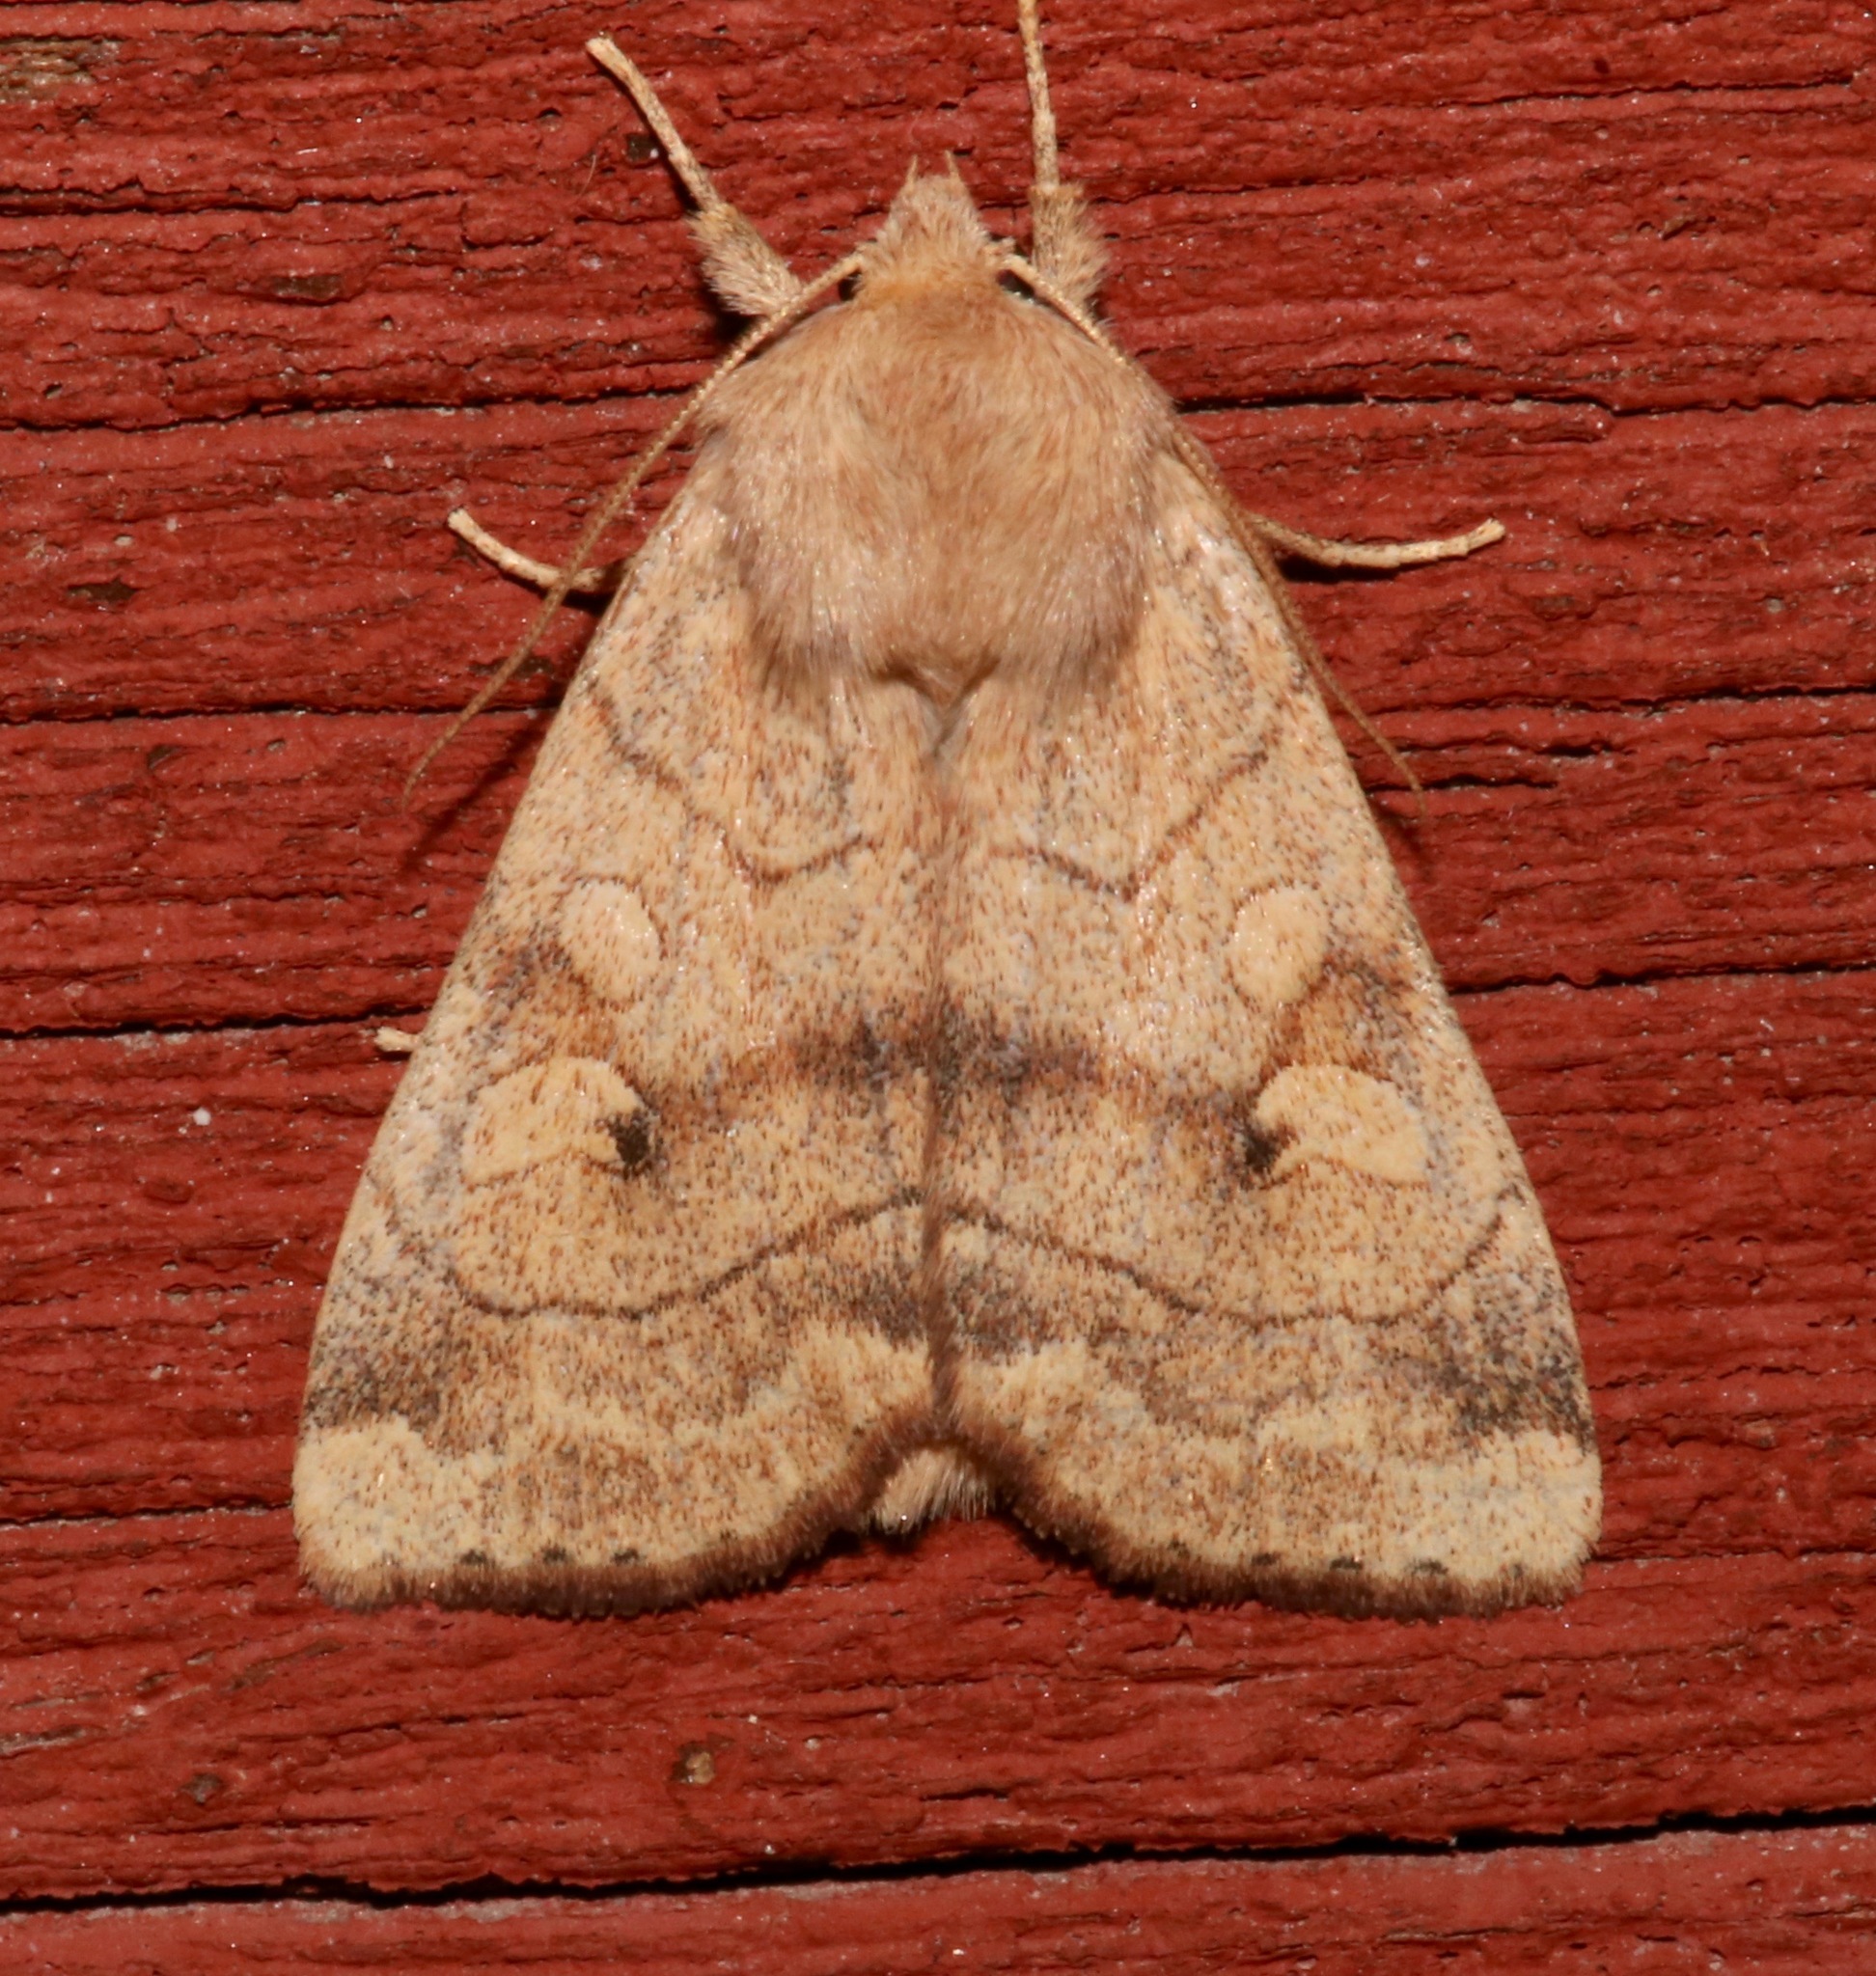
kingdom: Animalia
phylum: Arthropoda
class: Insecta
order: Lepidoptera
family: Noctuidae
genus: Enargia
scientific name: Enargia infumata
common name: Smoked sallow
